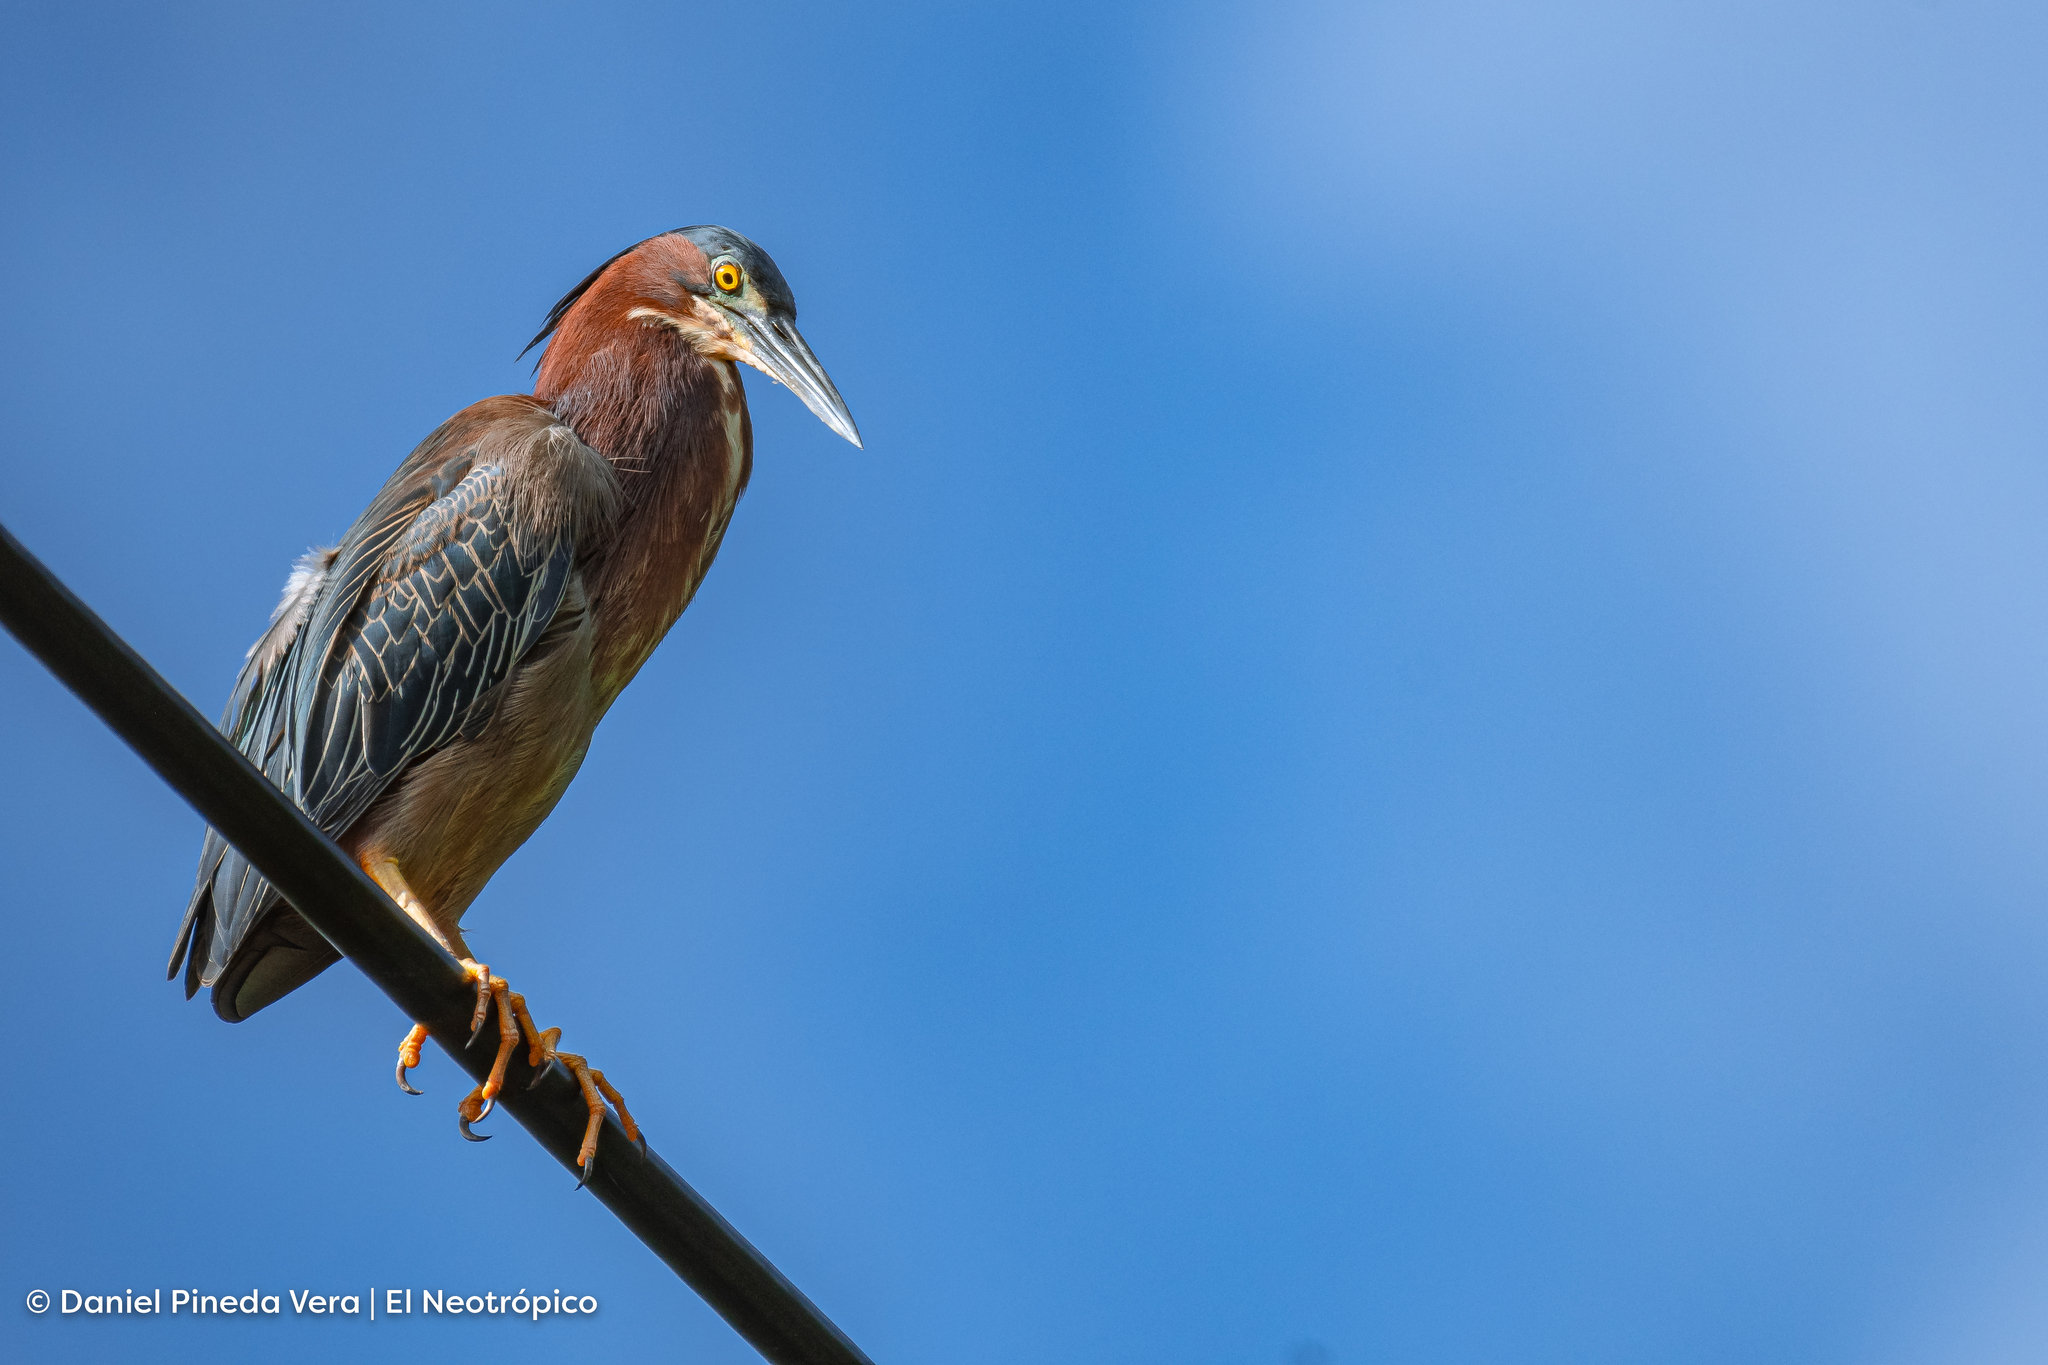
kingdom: Animalia
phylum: Chordata
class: Aves
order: Pelecaniformes
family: Ardeidae
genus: Butorides
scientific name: Butorides virescens
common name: Green heron
